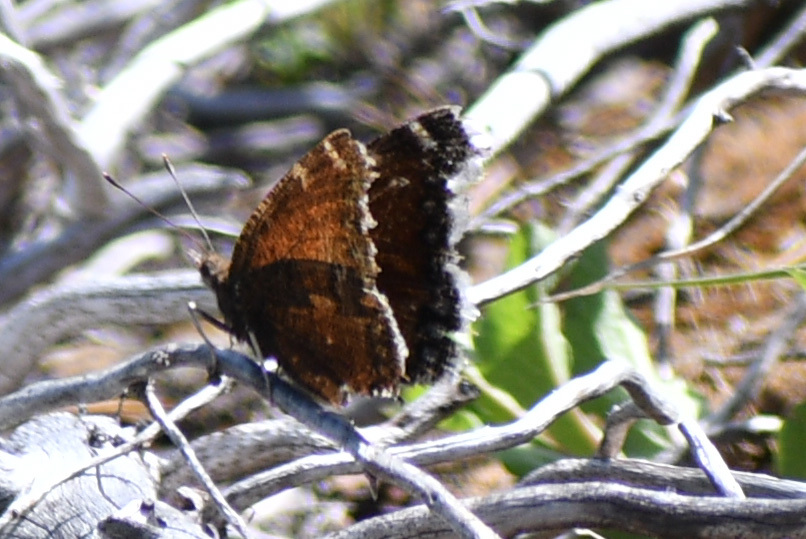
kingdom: Animalia
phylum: Arthropoda
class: Insecta
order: Lepidoptera
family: Nymphalidae
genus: Nymphalis
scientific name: Nymphalis antiopa
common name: Camberwell beauty
